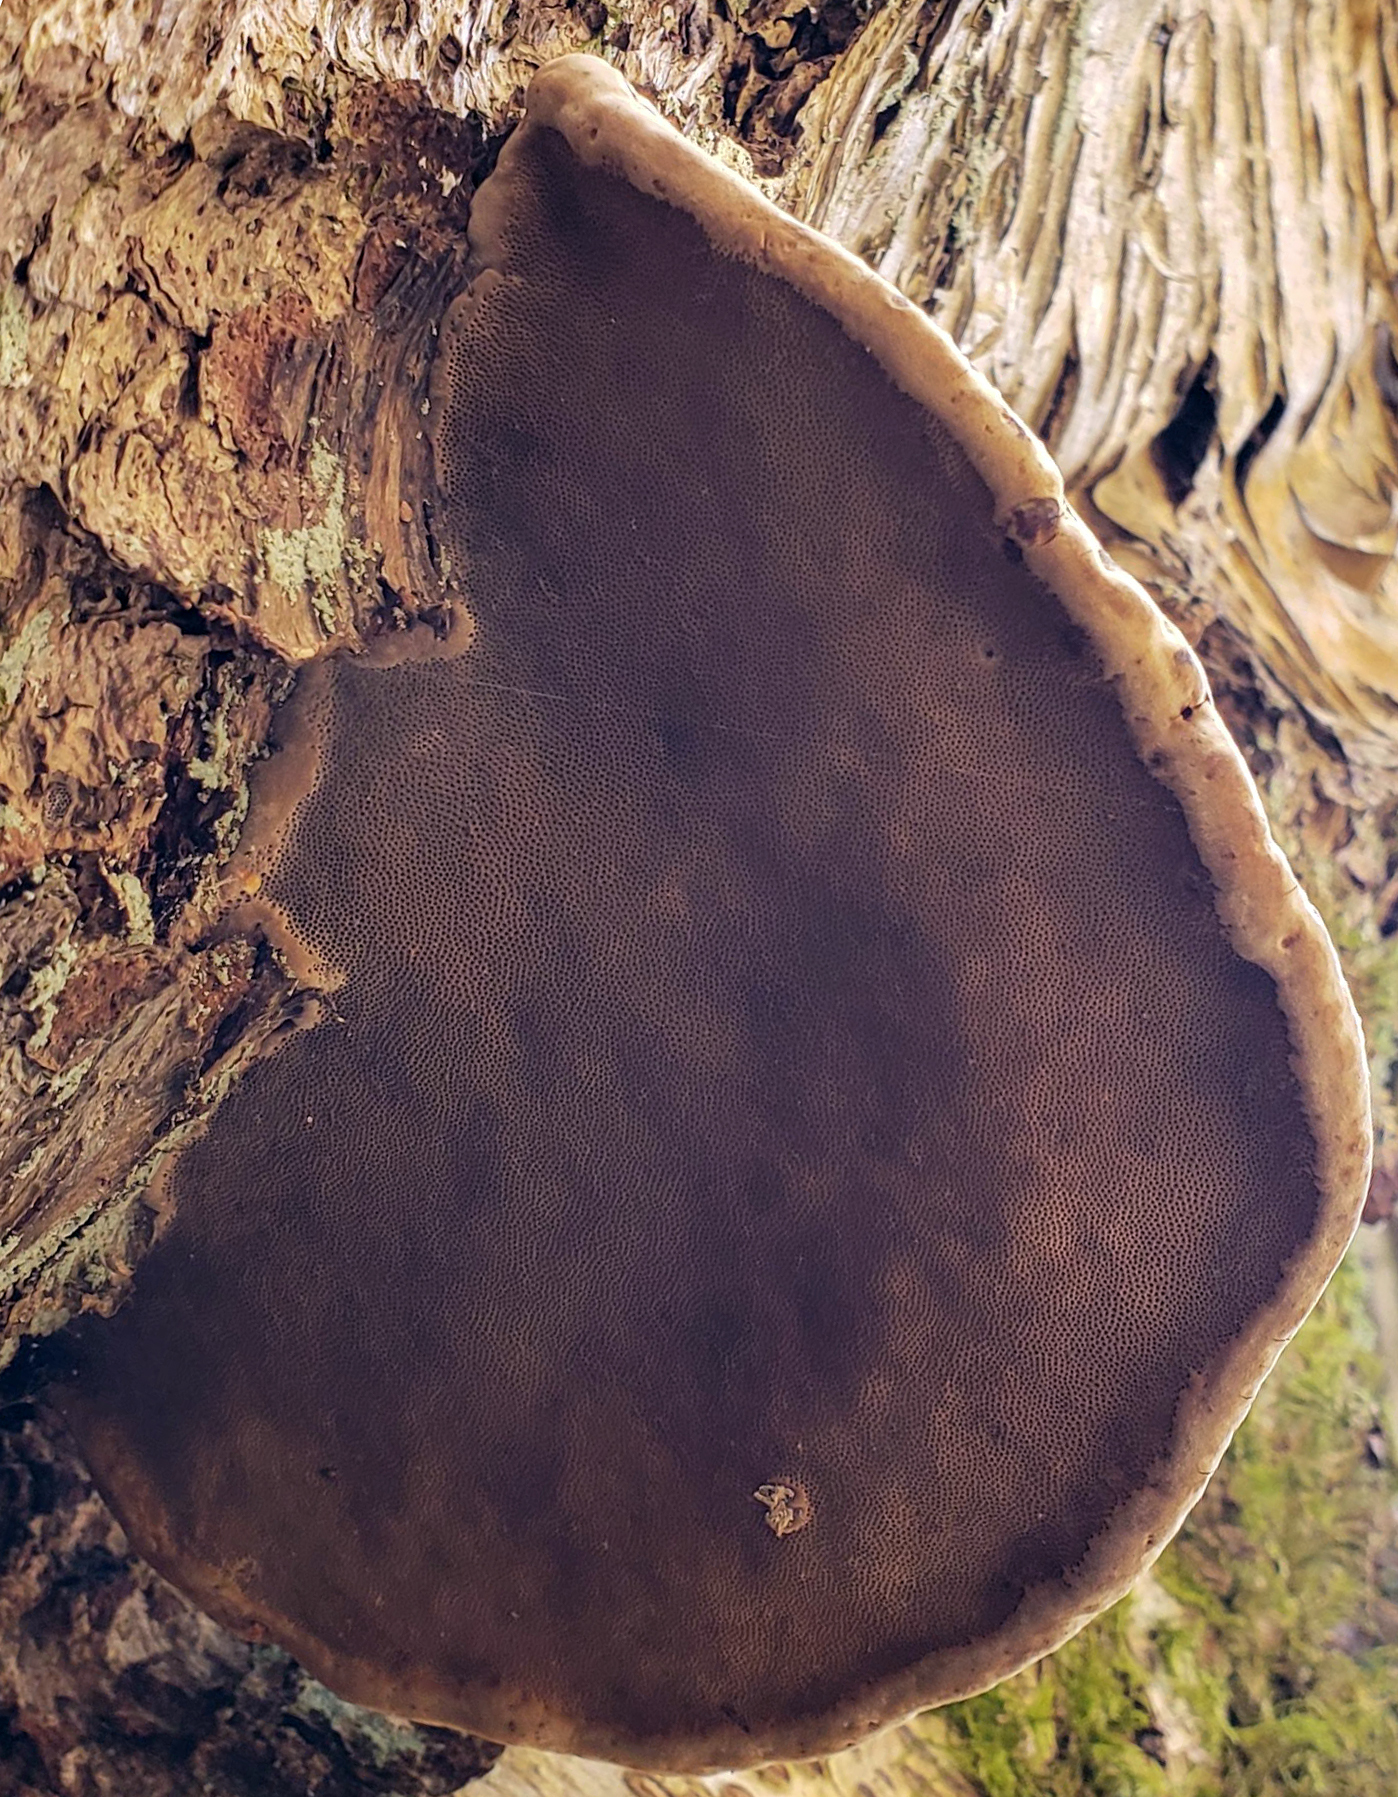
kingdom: Fungi
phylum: Basidiomycota
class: Agaricomycetes
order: Polyporales
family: Polyporaceae
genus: Fomes
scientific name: Fomes fomentarius
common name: Hoof fungus
